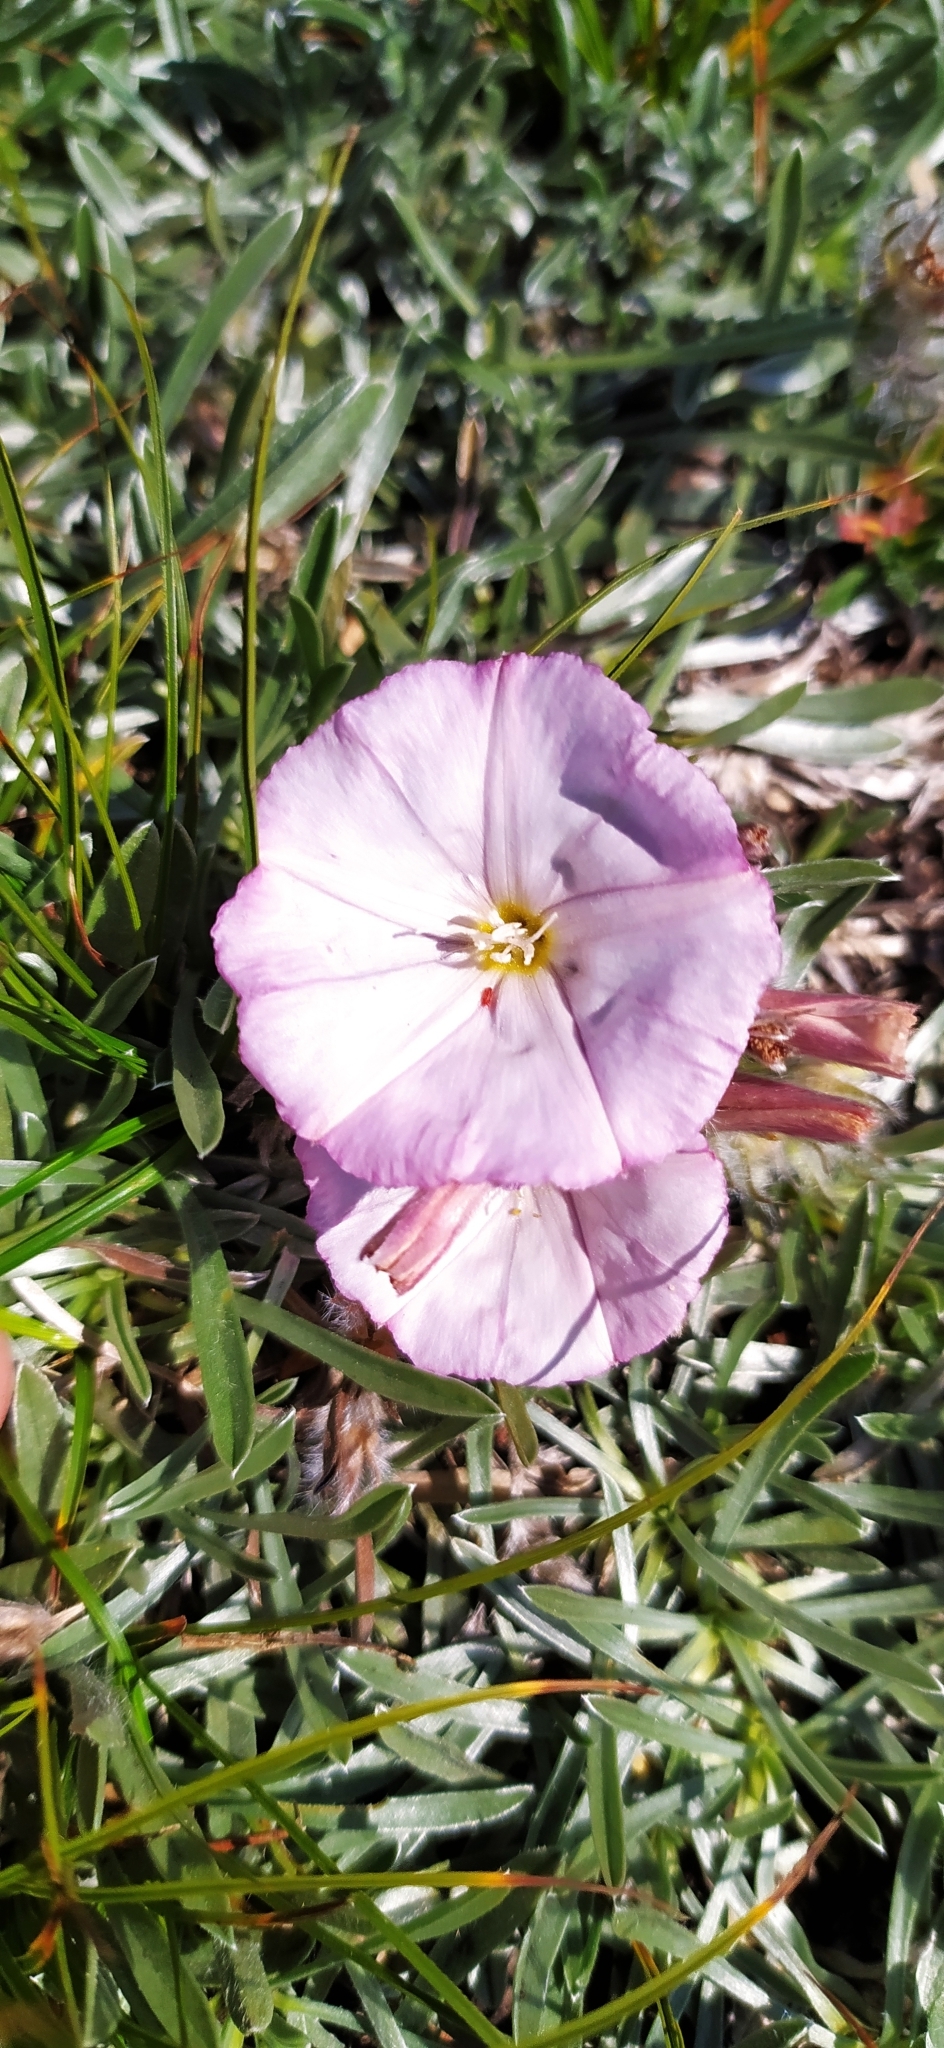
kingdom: Plantae
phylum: Tracheophyta
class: Magnoliopsida
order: Solanales
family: Convolvulaceae
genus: Convolvulus
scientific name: Convolvulus calvertii
